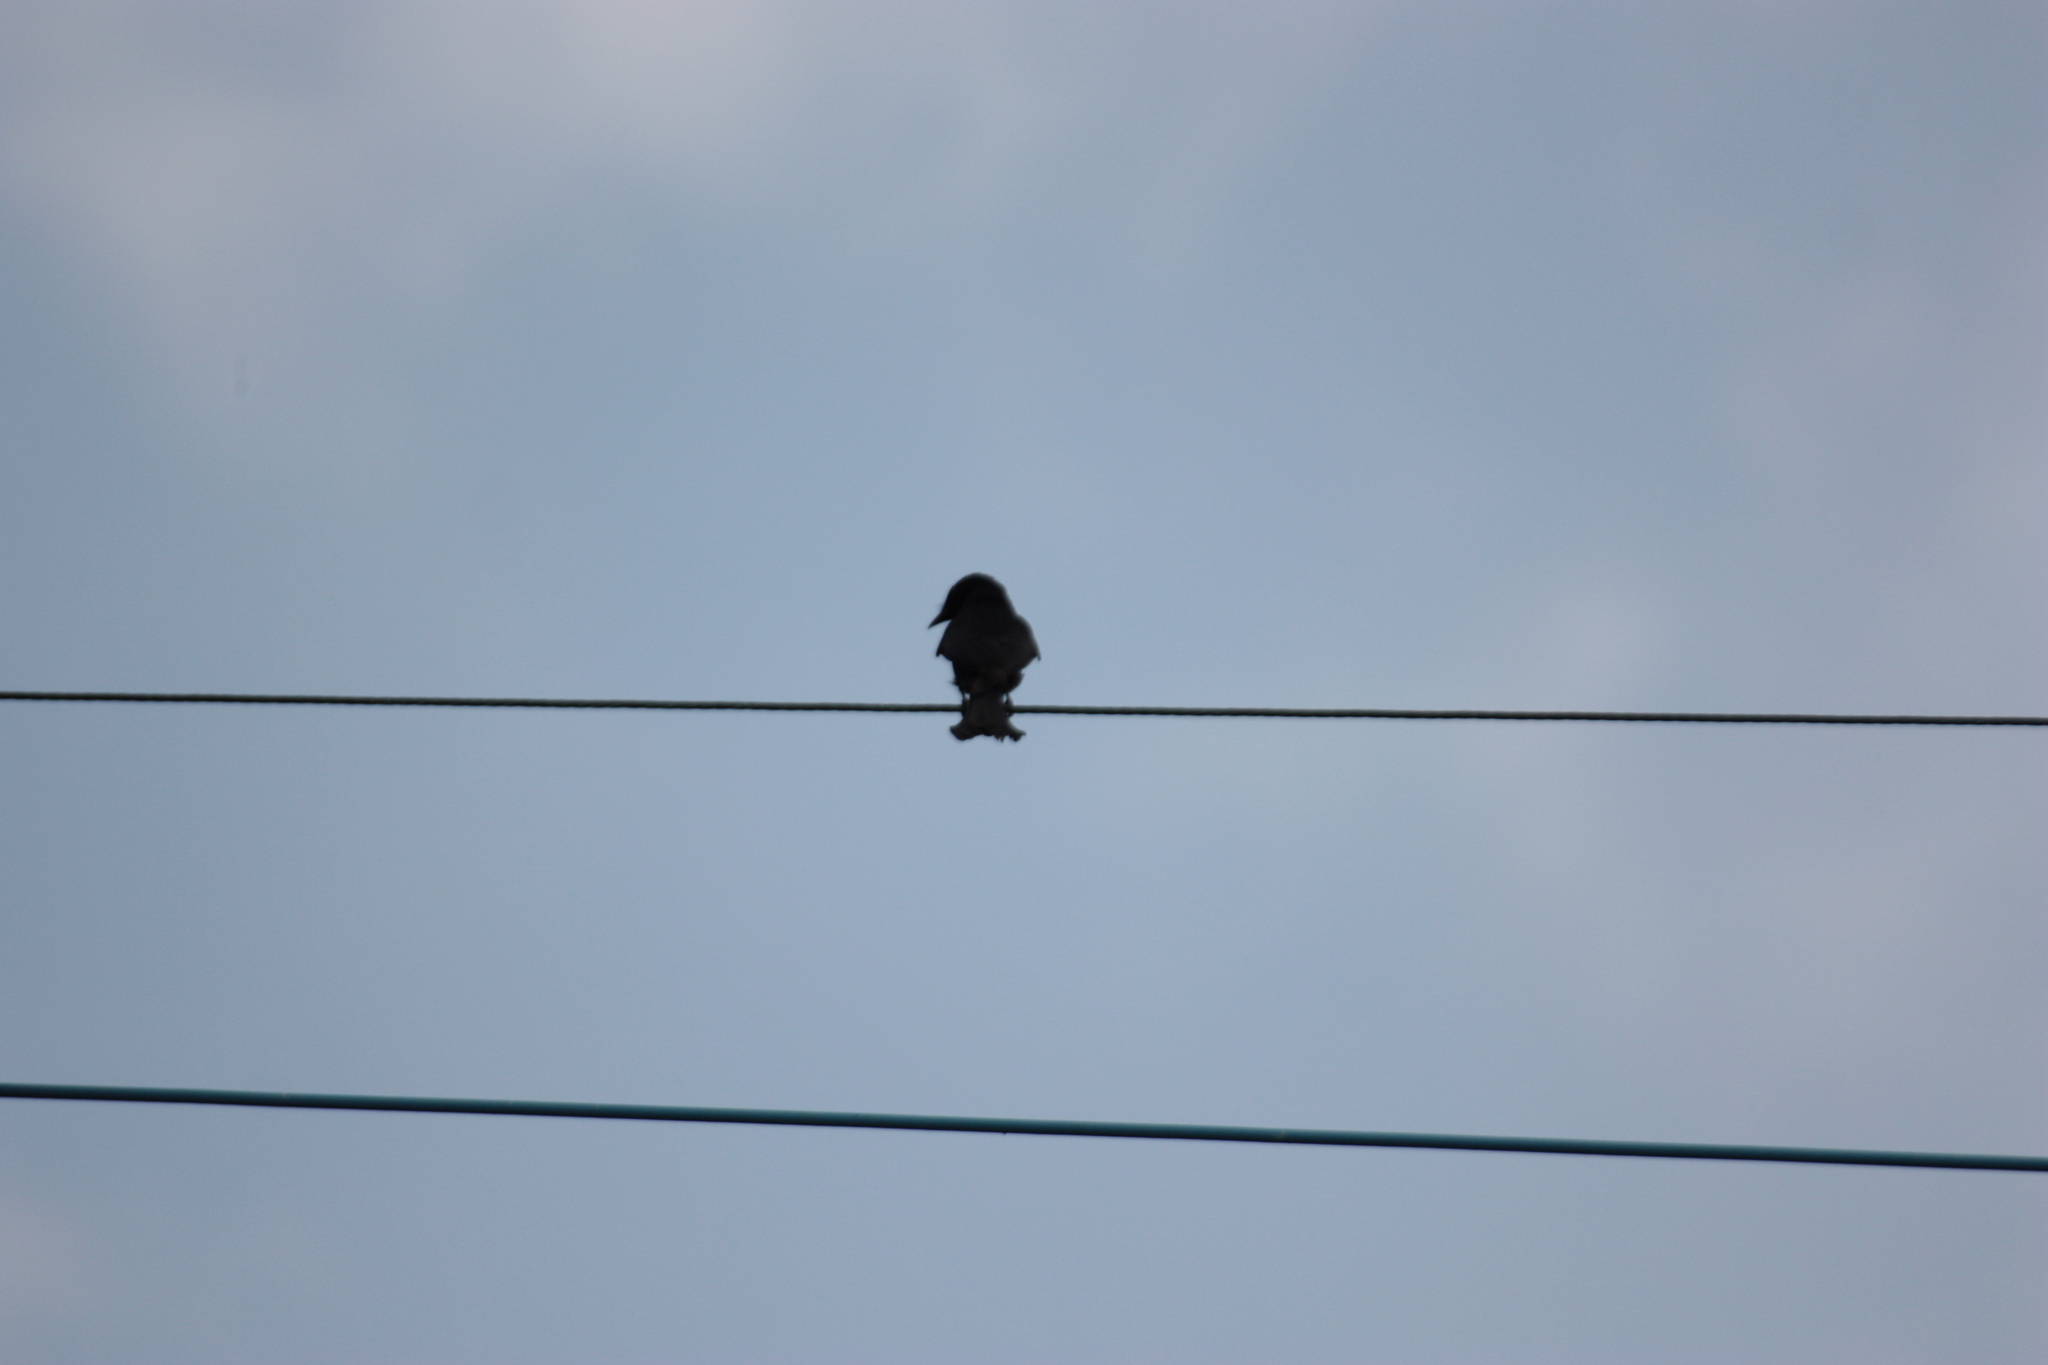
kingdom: Animalia
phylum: Chordata
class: Aves
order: Passeriformes
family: Dicruridae
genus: Dicrurus
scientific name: Dicrurus macrocercus
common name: Black drongo
